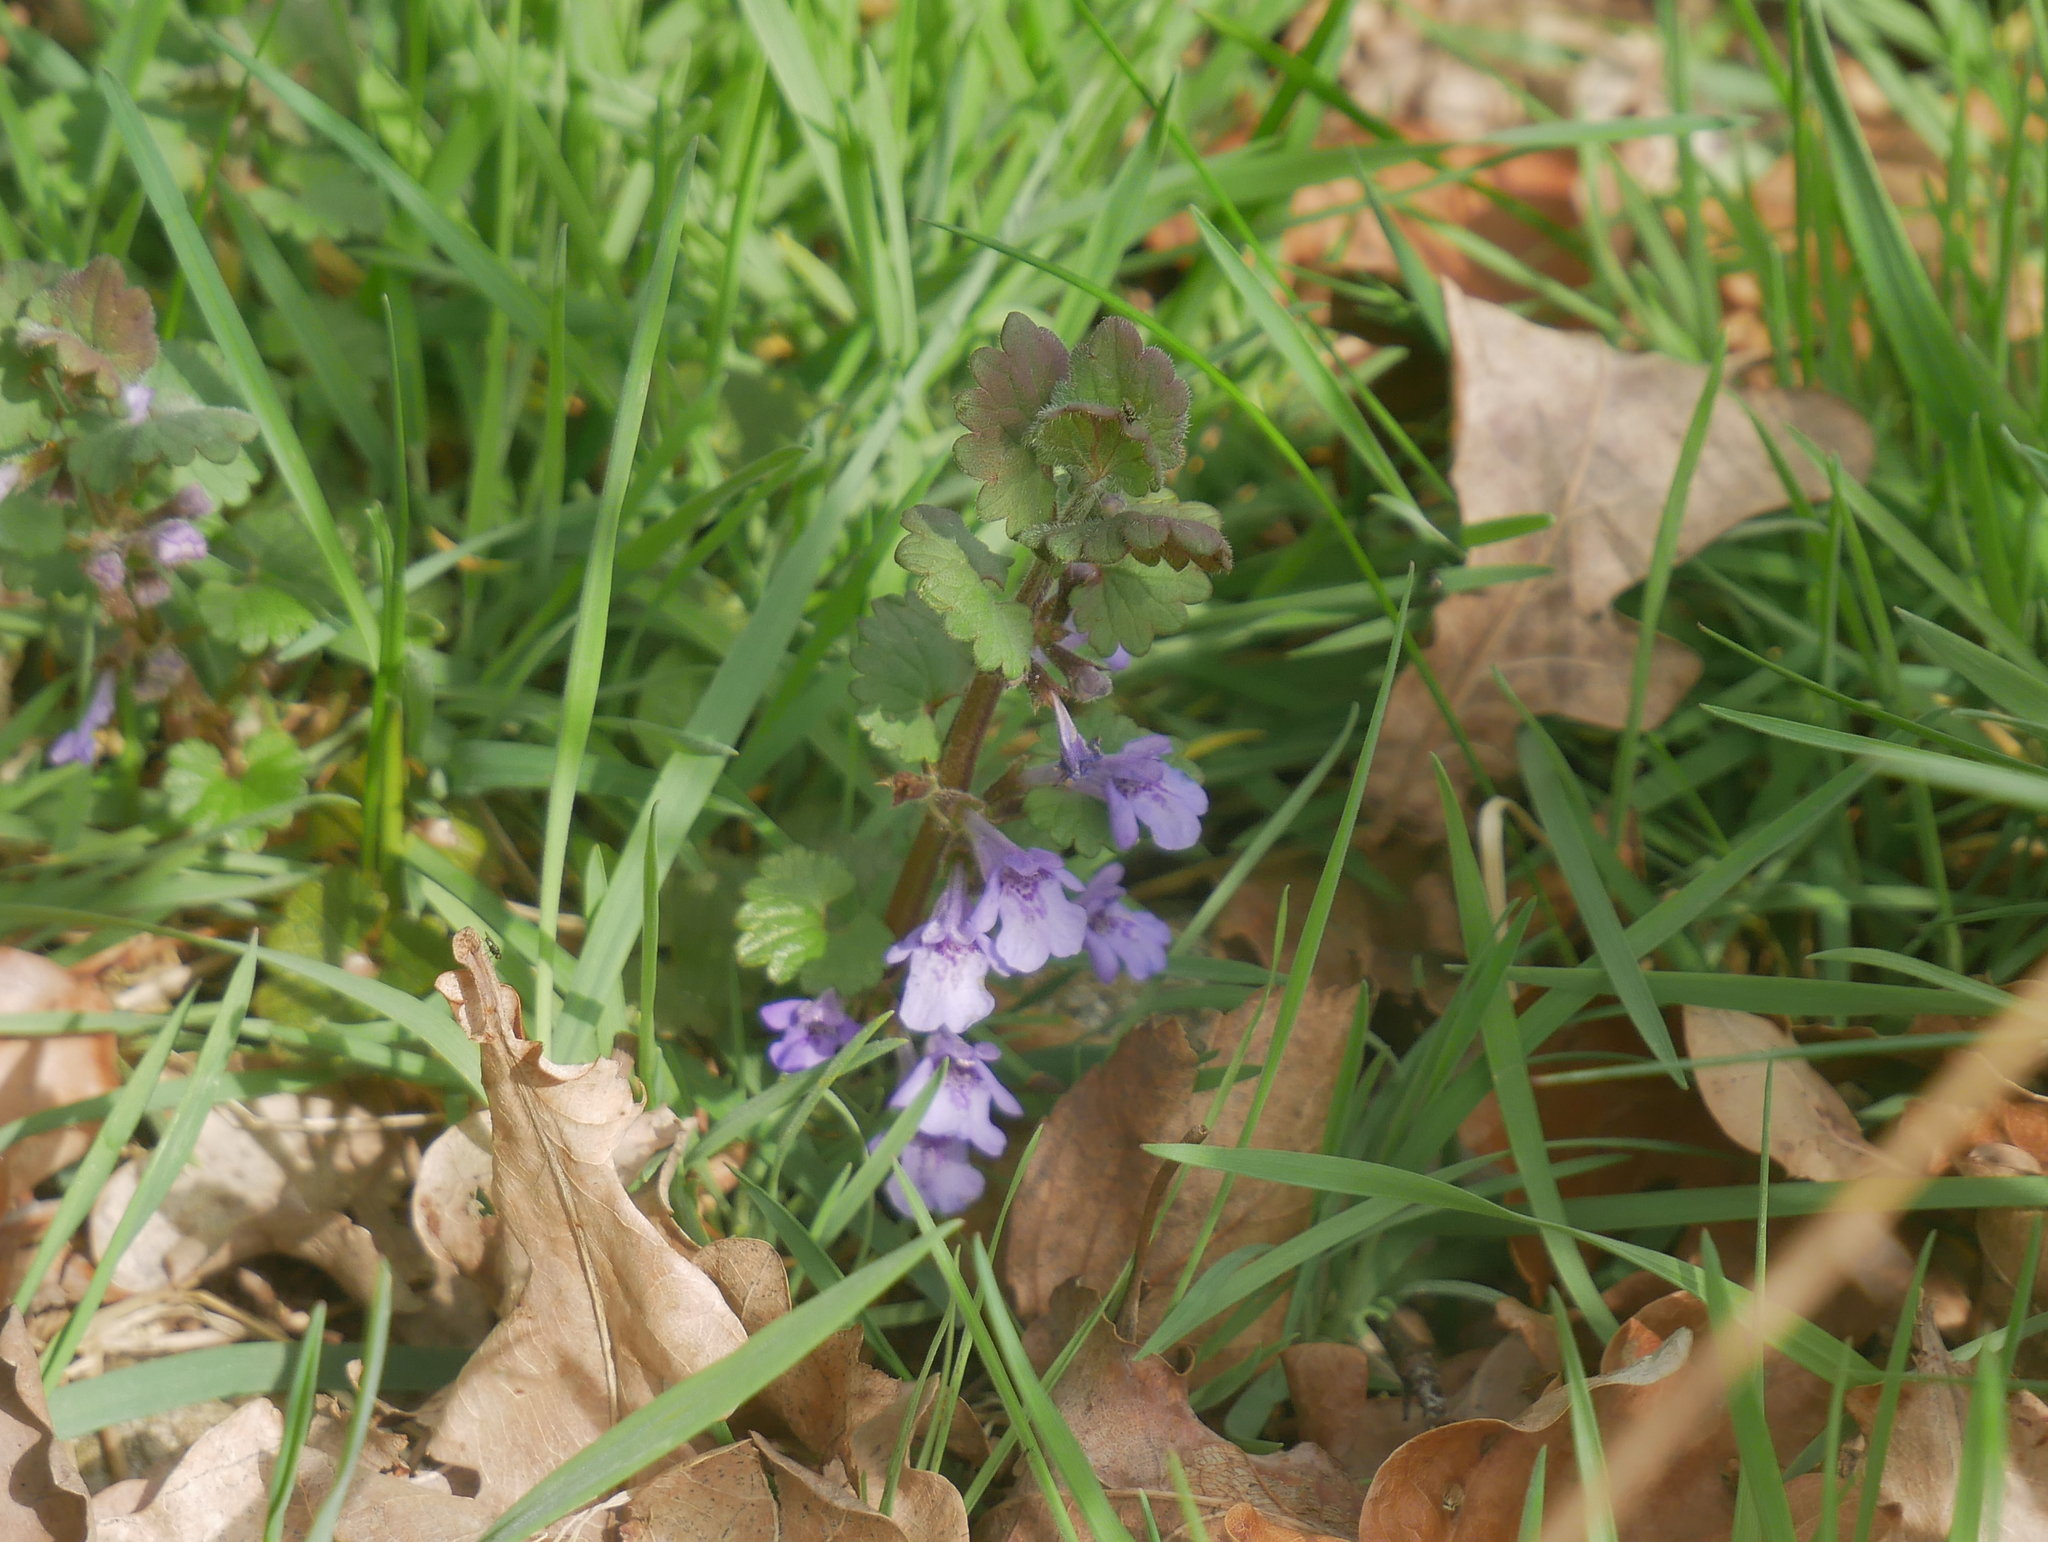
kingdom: Plantae
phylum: Tracheophyta
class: Magnoliopsida
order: Lamiales
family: Lamiaceae
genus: Glechoma
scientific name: Glechoma hederacea
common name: Ground ivy
